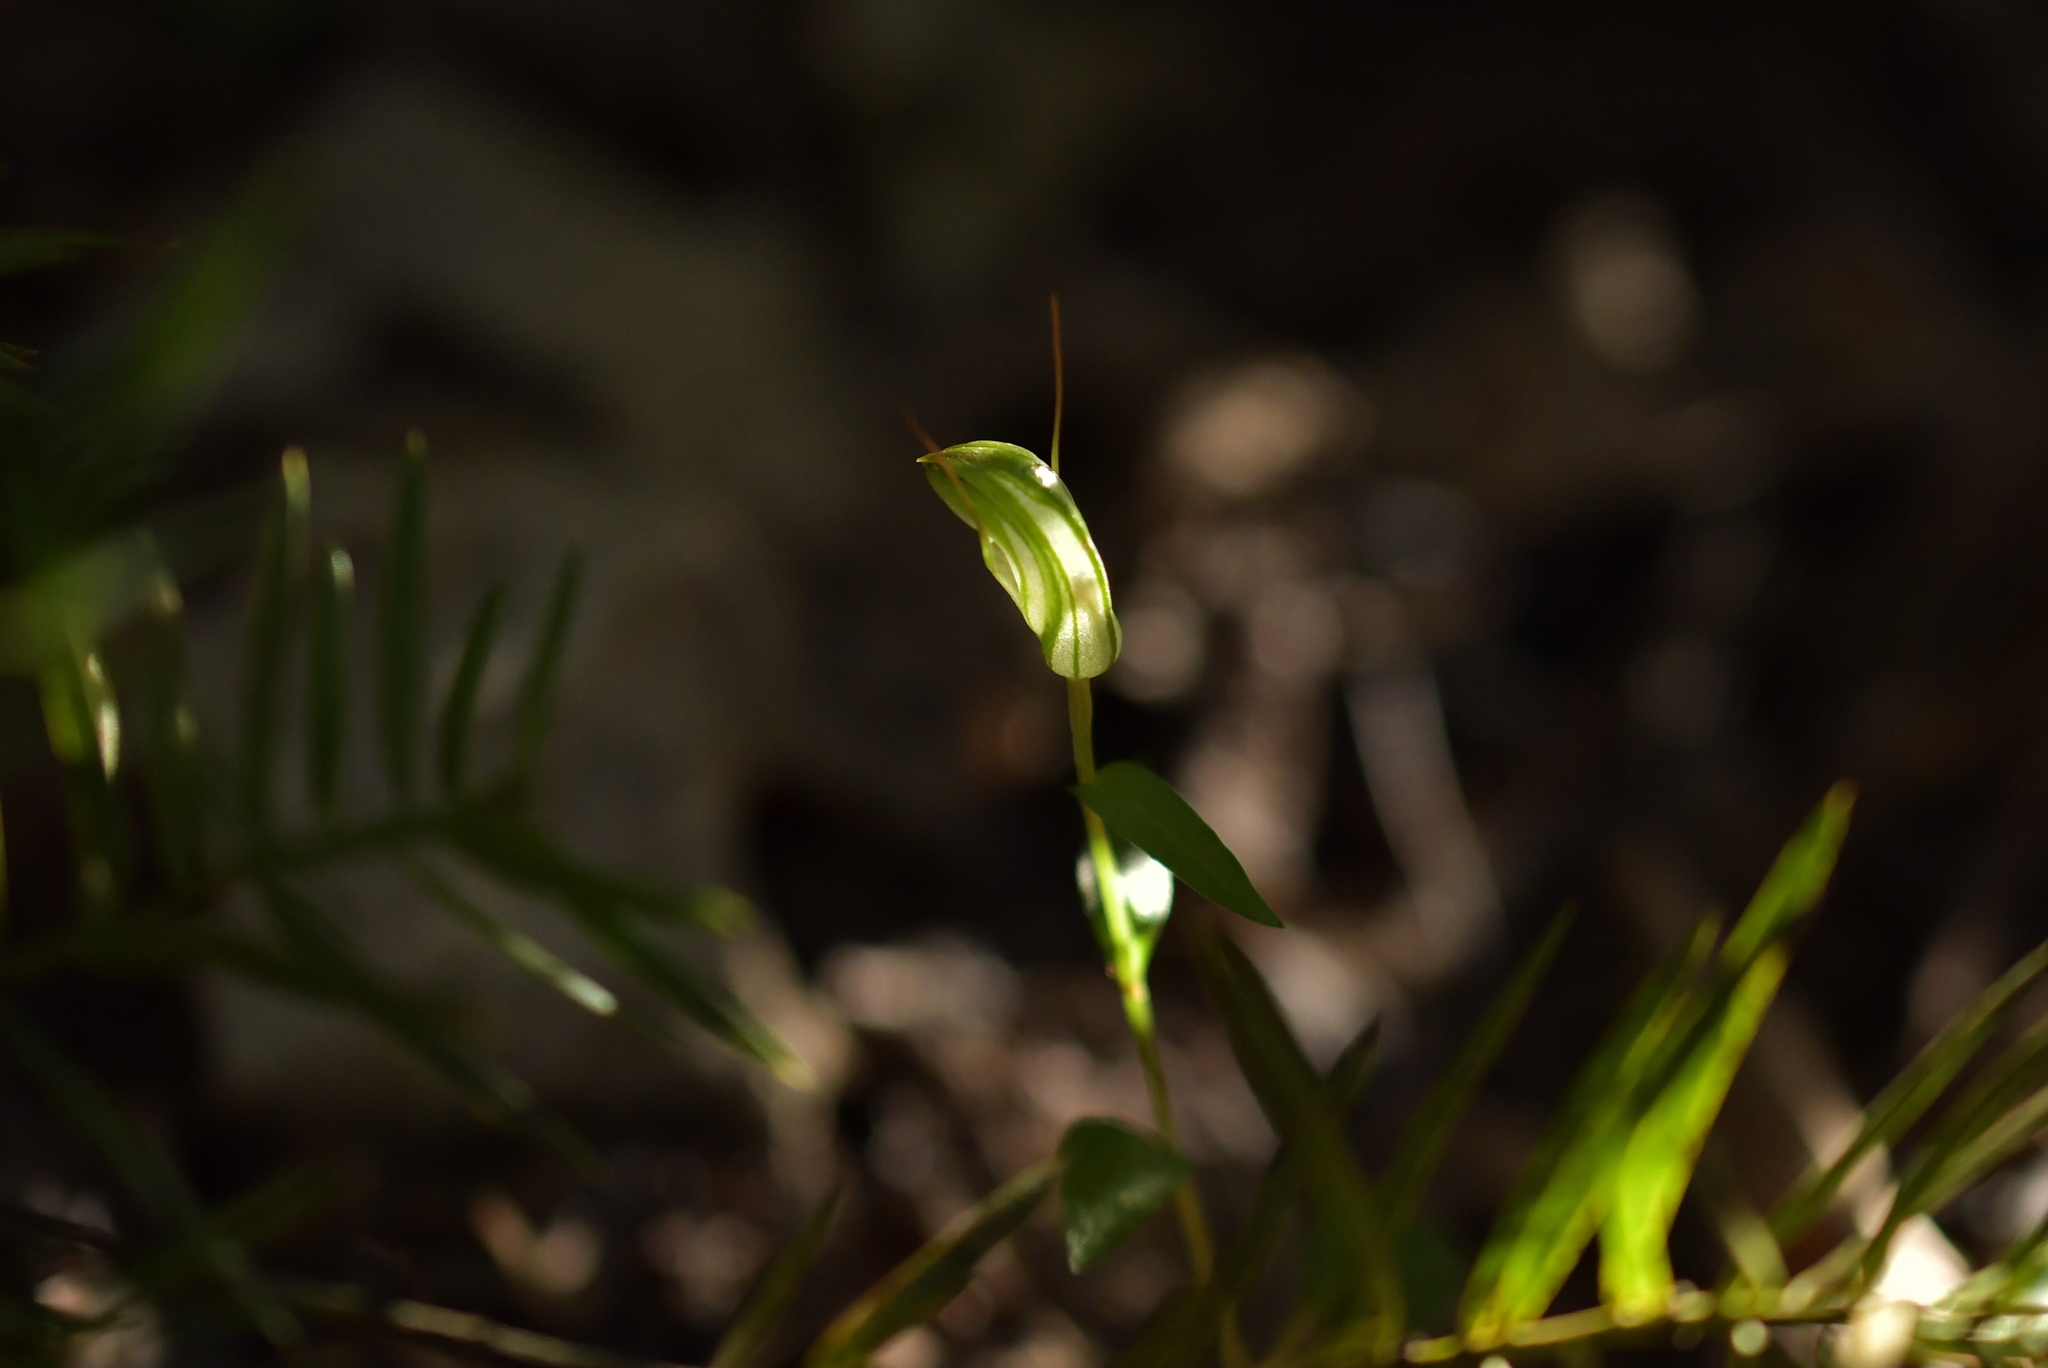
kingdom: Plantae
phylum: Tracheophyta
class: Liliopsida
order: Asparagales
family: Orchidaceae
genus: Pterostylis
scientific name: Pterostylis alobula
